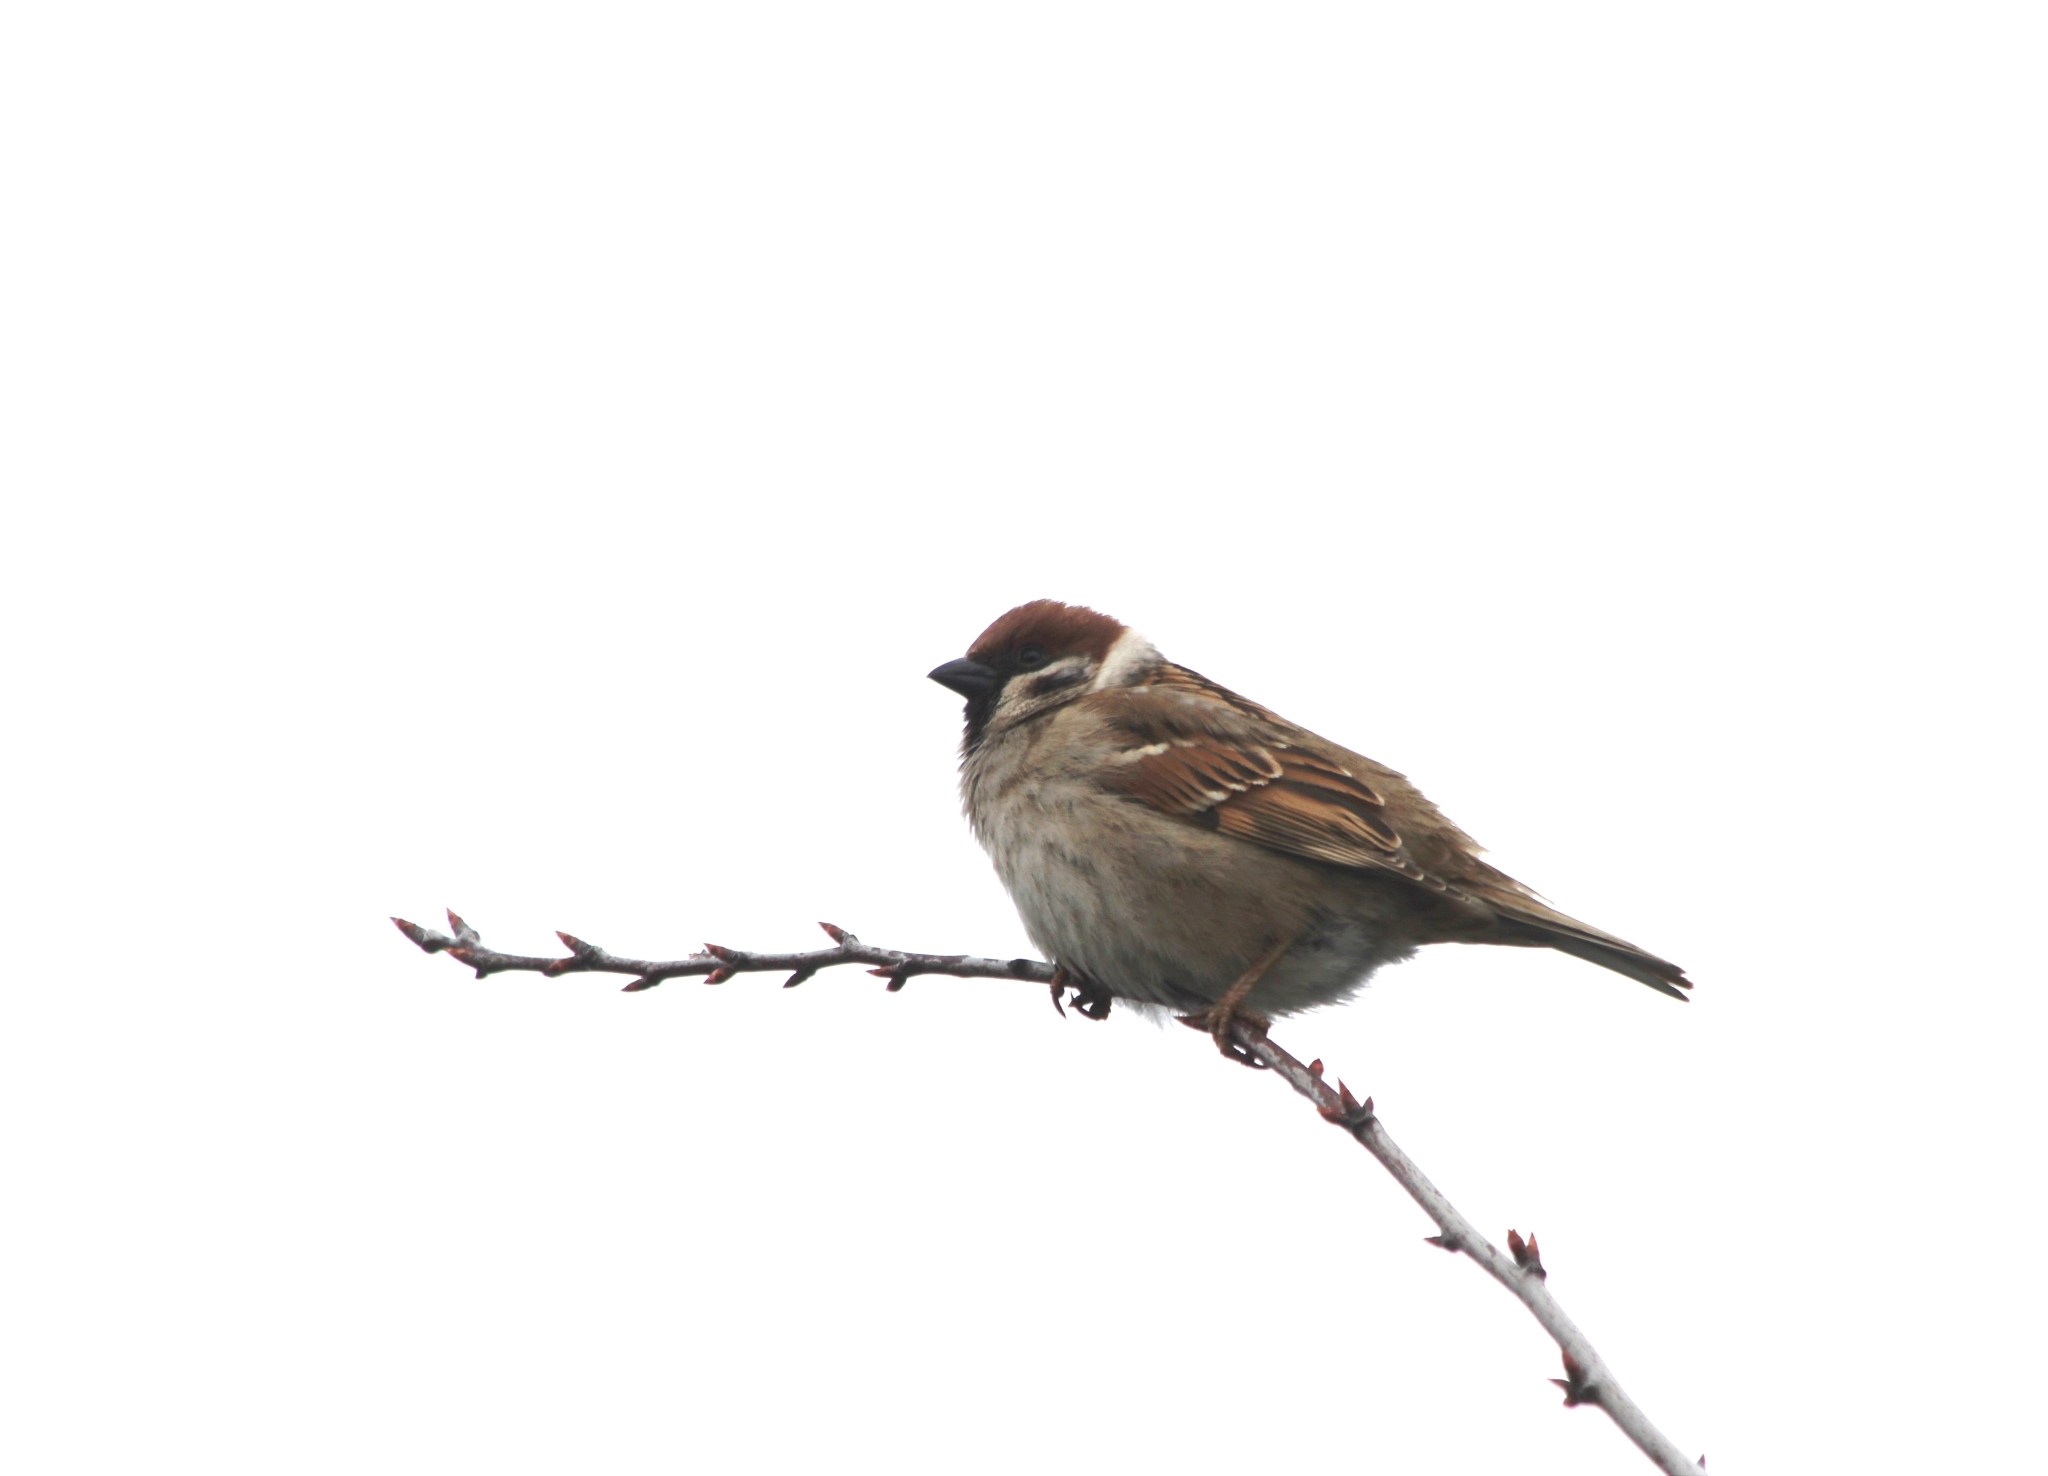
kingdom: Animalia
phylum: Chordata
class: Aves
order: Passeriformes
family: Passeridae
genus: Passer
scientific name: Passer montanus
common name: Eurasian tree sparrow
